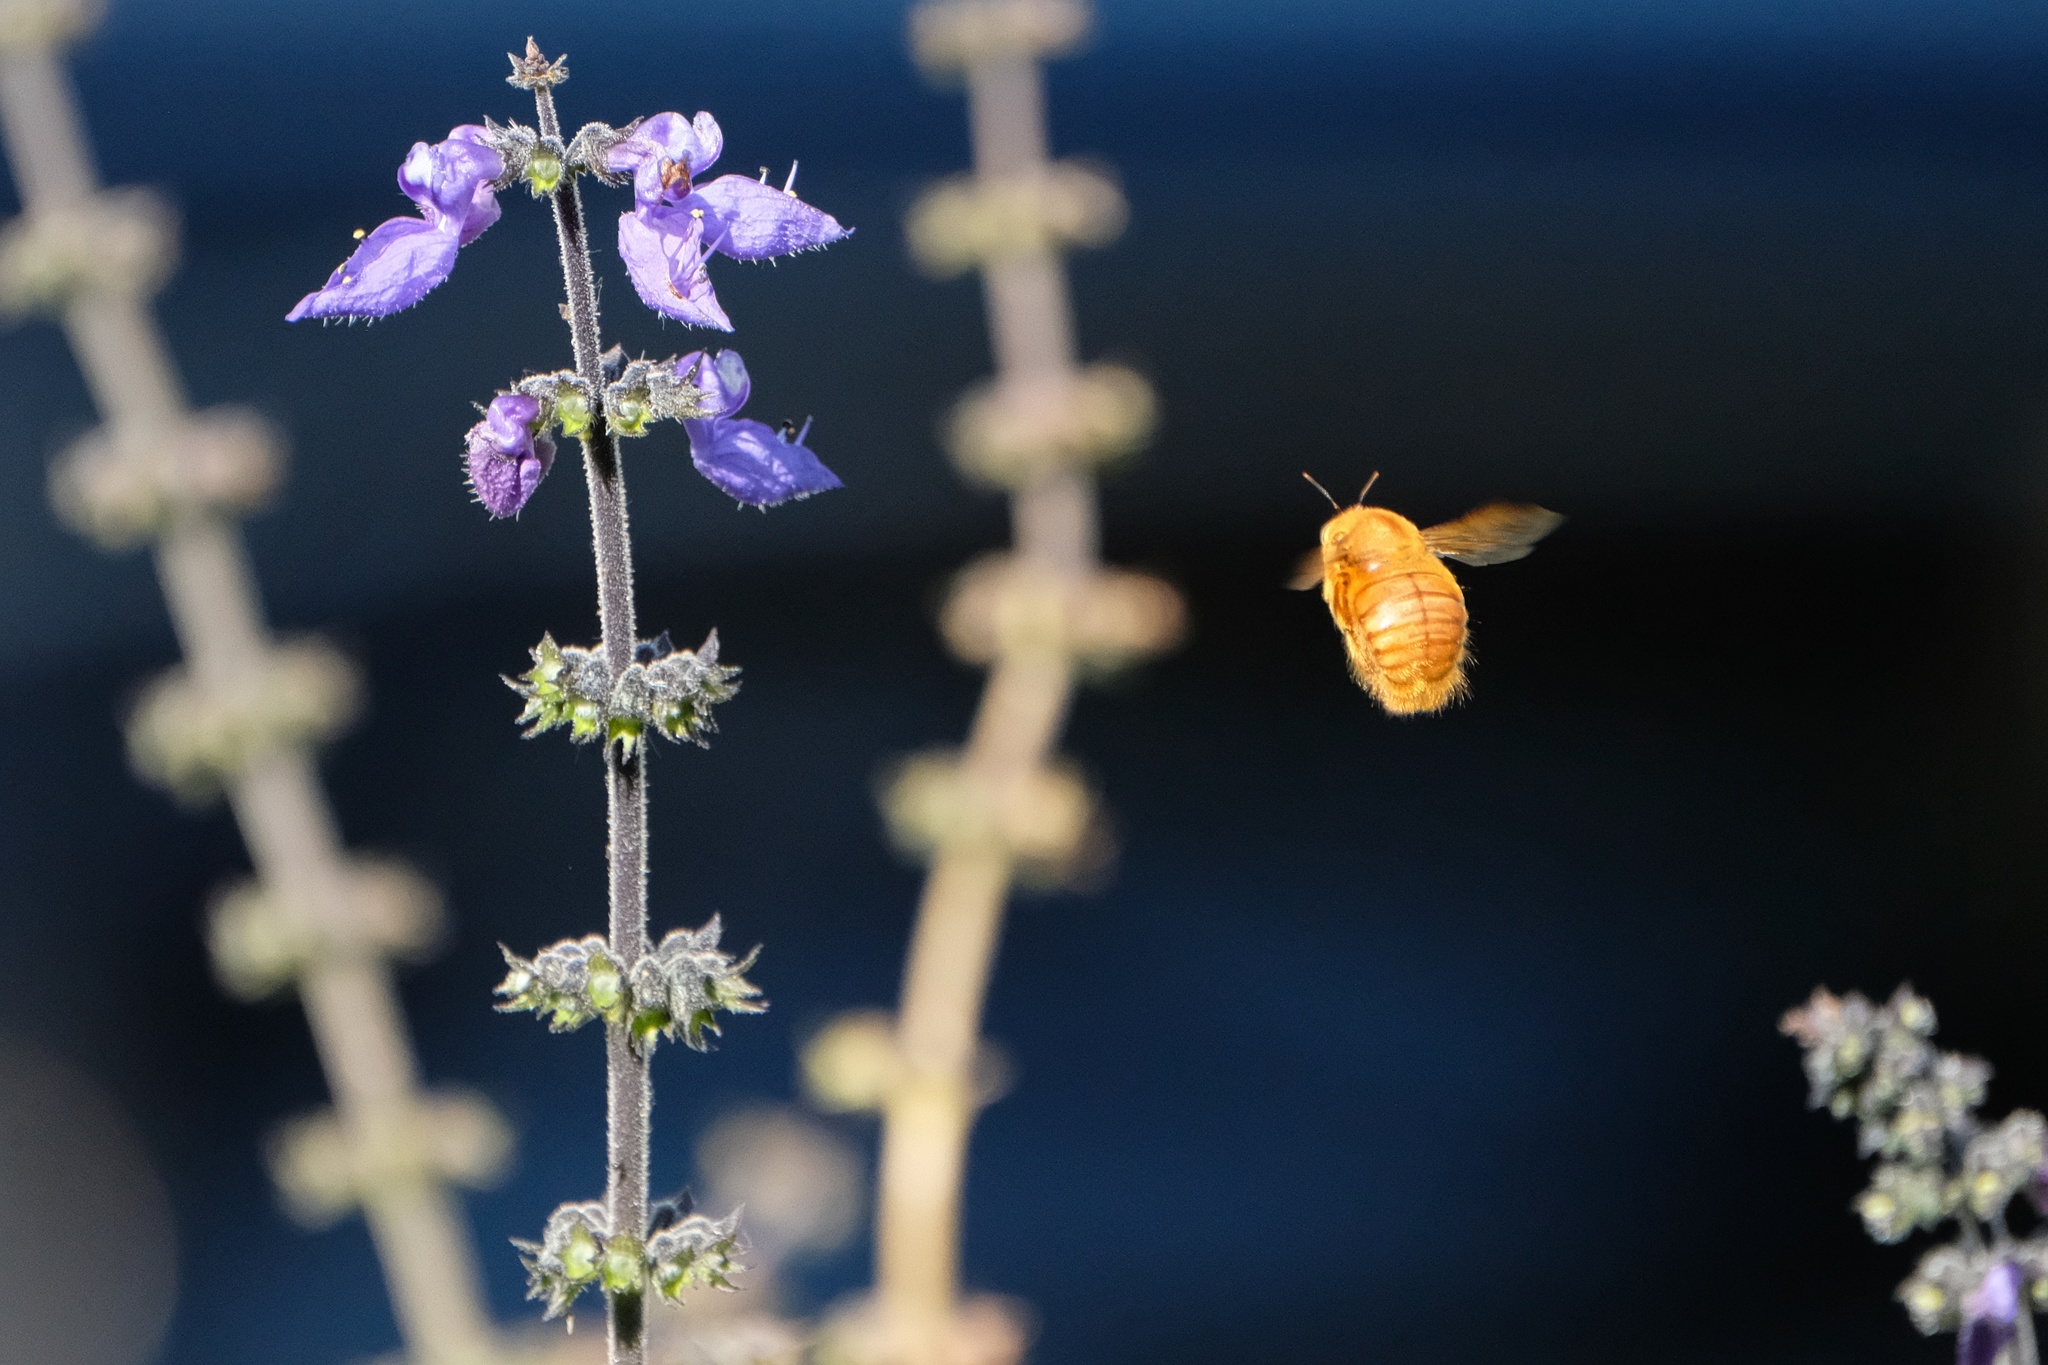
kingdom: Animalia
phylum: Arthropoda
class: Insecta
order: Hymenoptera
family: Apidae
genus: Xylocopa
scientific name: Xylocopa sonorina
